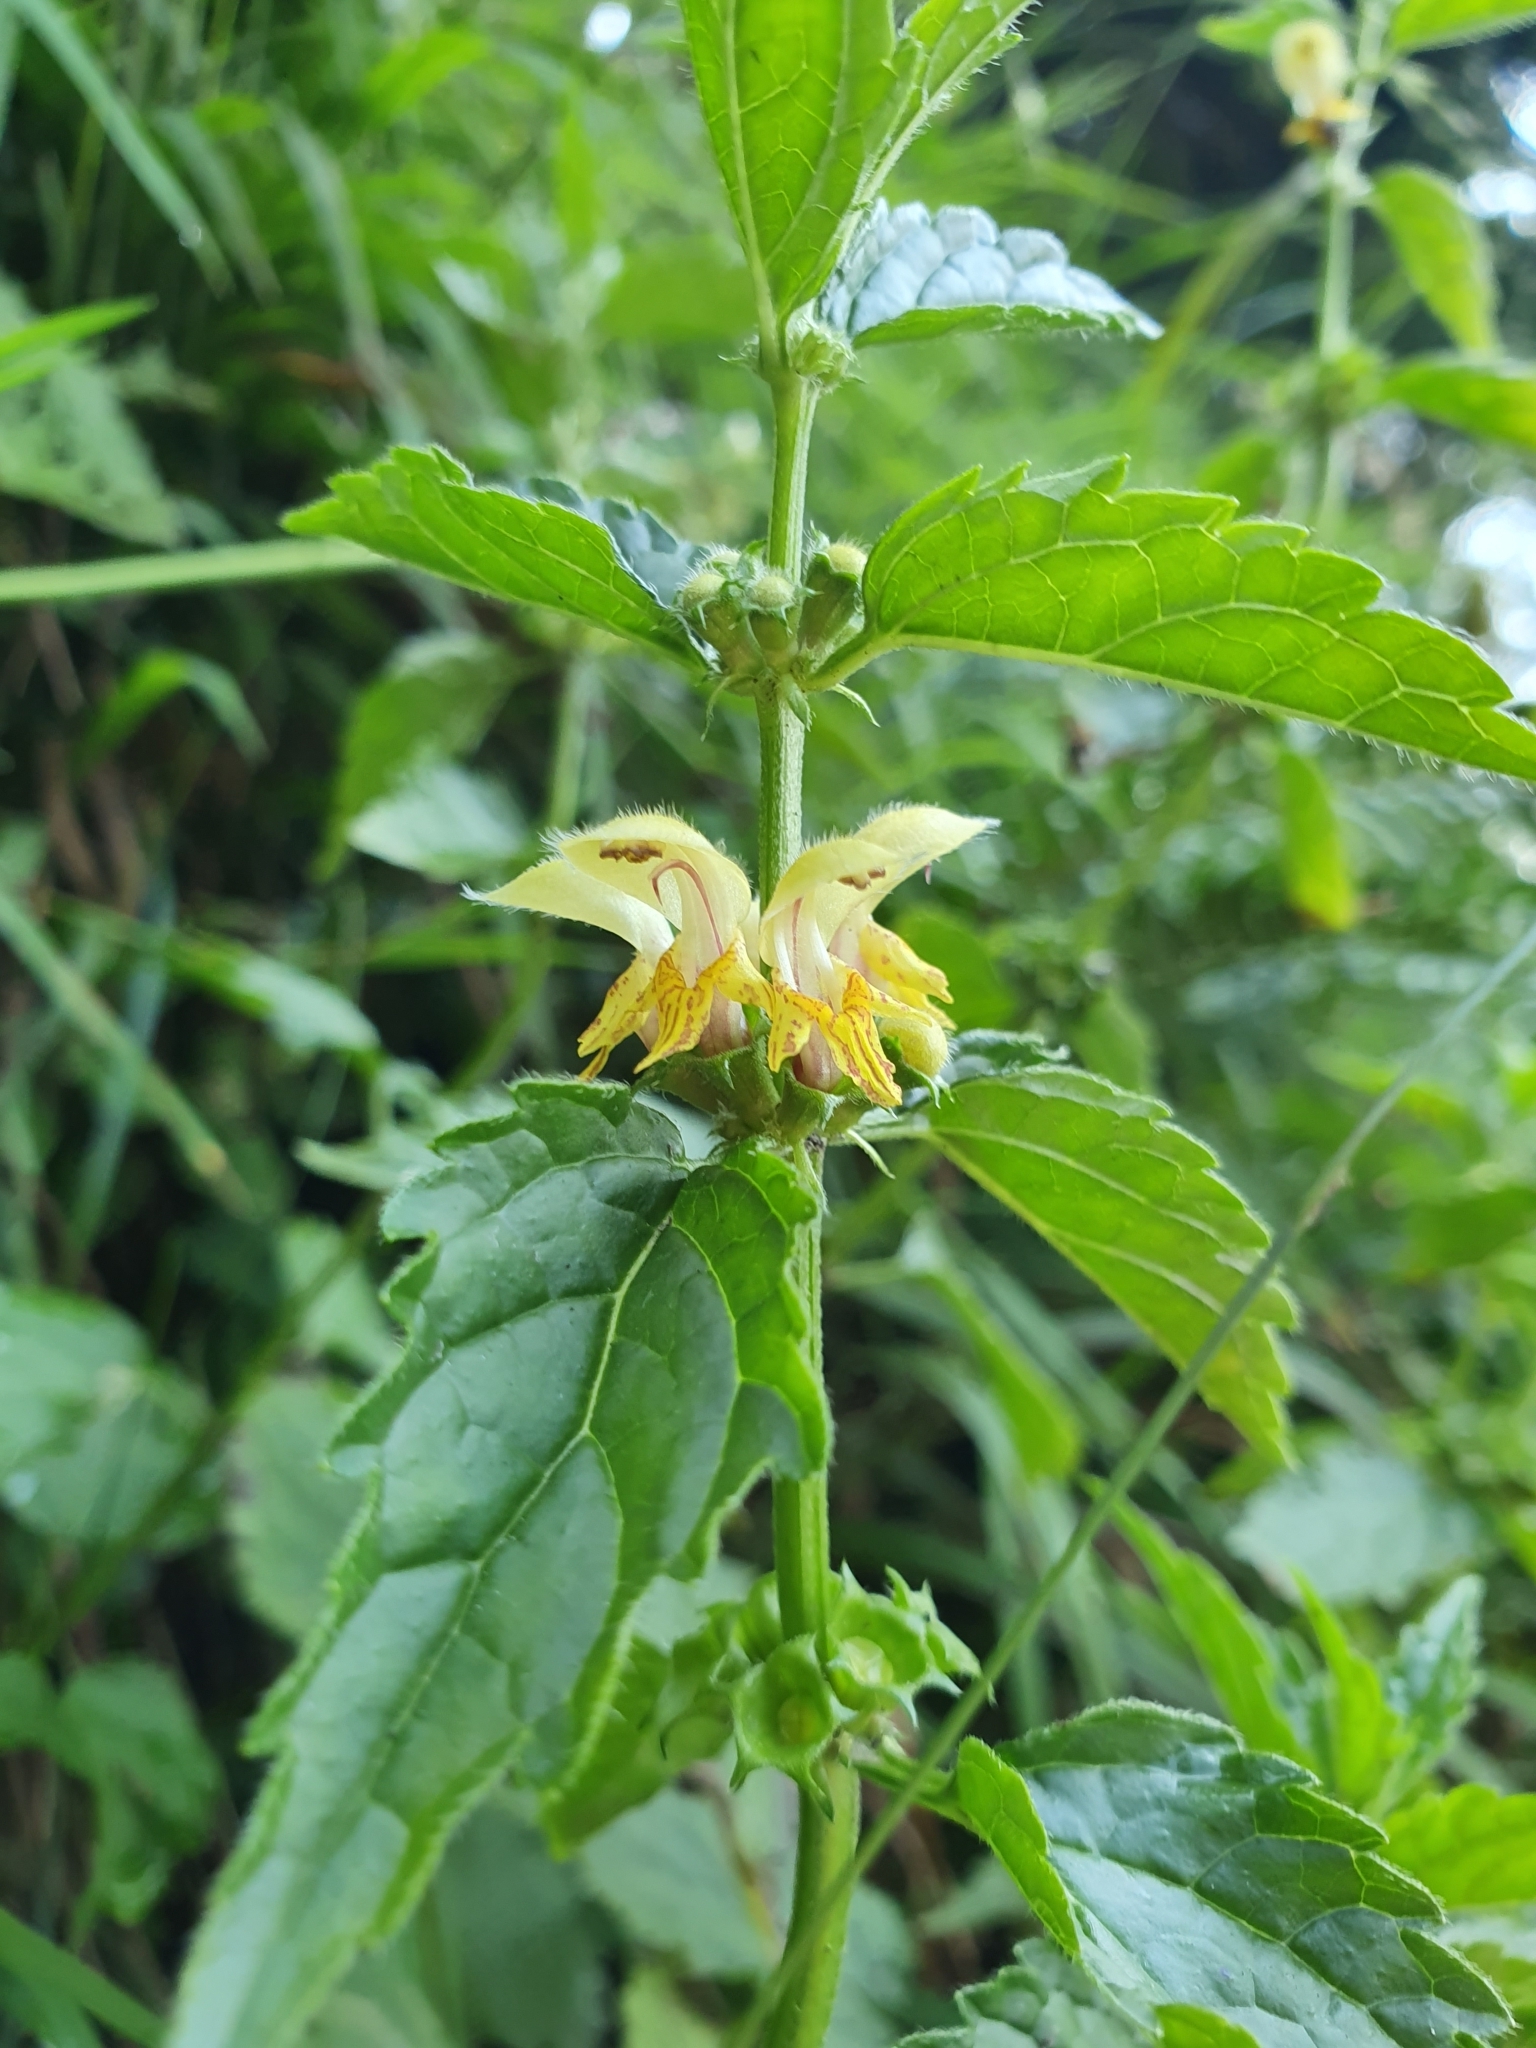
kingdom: Plantae
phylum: Tracheophyta
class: Magnoliopsida
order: Lamiales
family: Lamiaceae
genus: Lamium
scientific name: Lamium galeobdolon
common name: Yellow archangel
